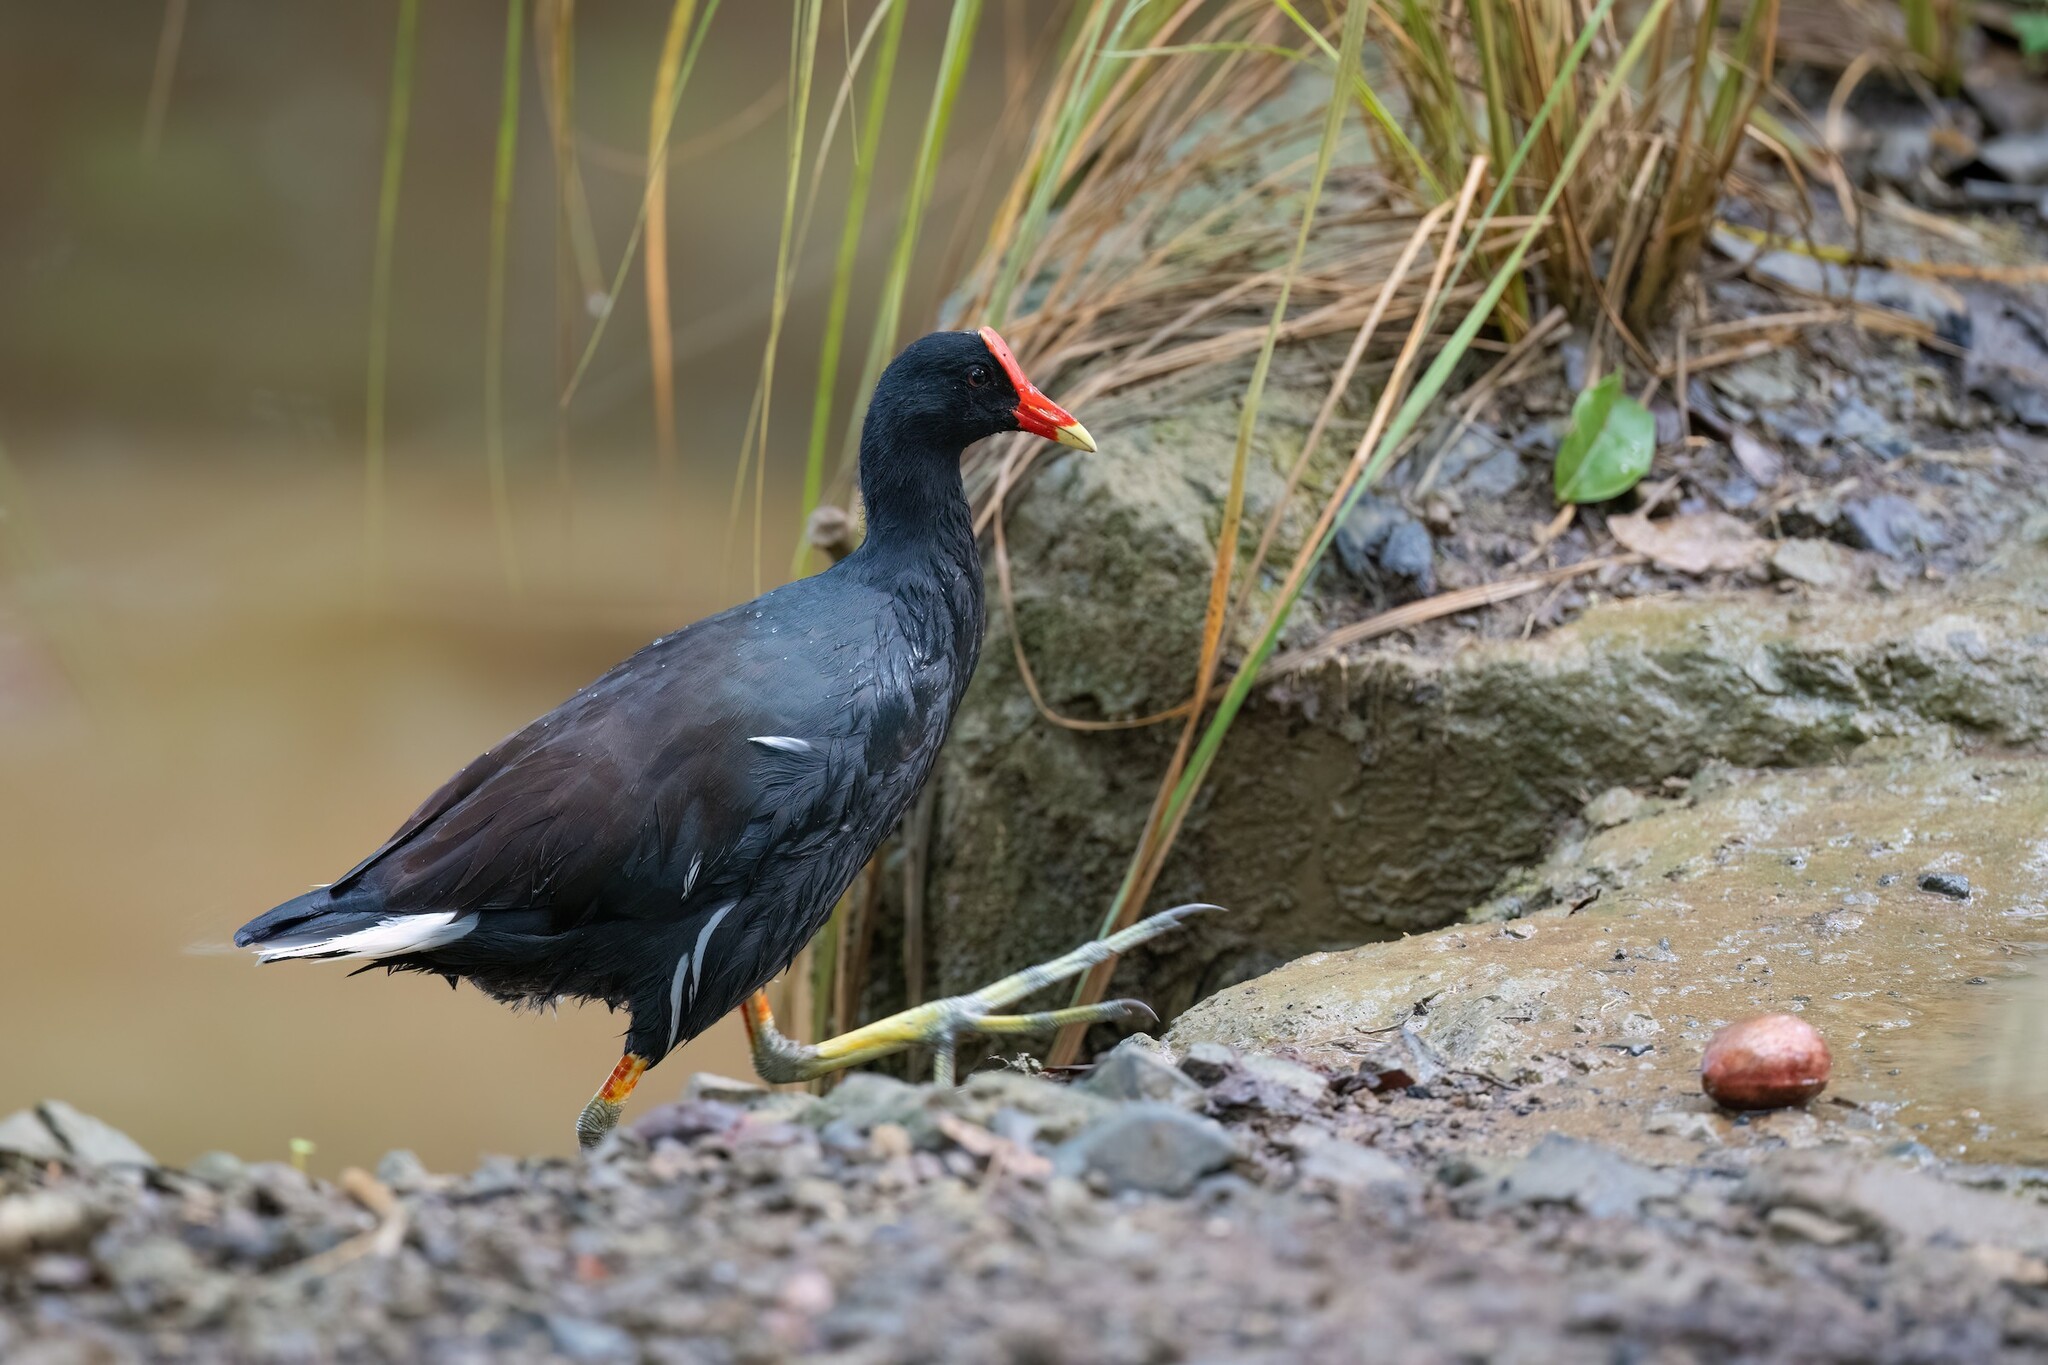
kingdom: Animalia
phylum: Chordata
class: Aves
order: Gruiformes
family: Rallidae
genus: Gallinula
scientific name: Gallinula chloropus
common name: Common moorhen
